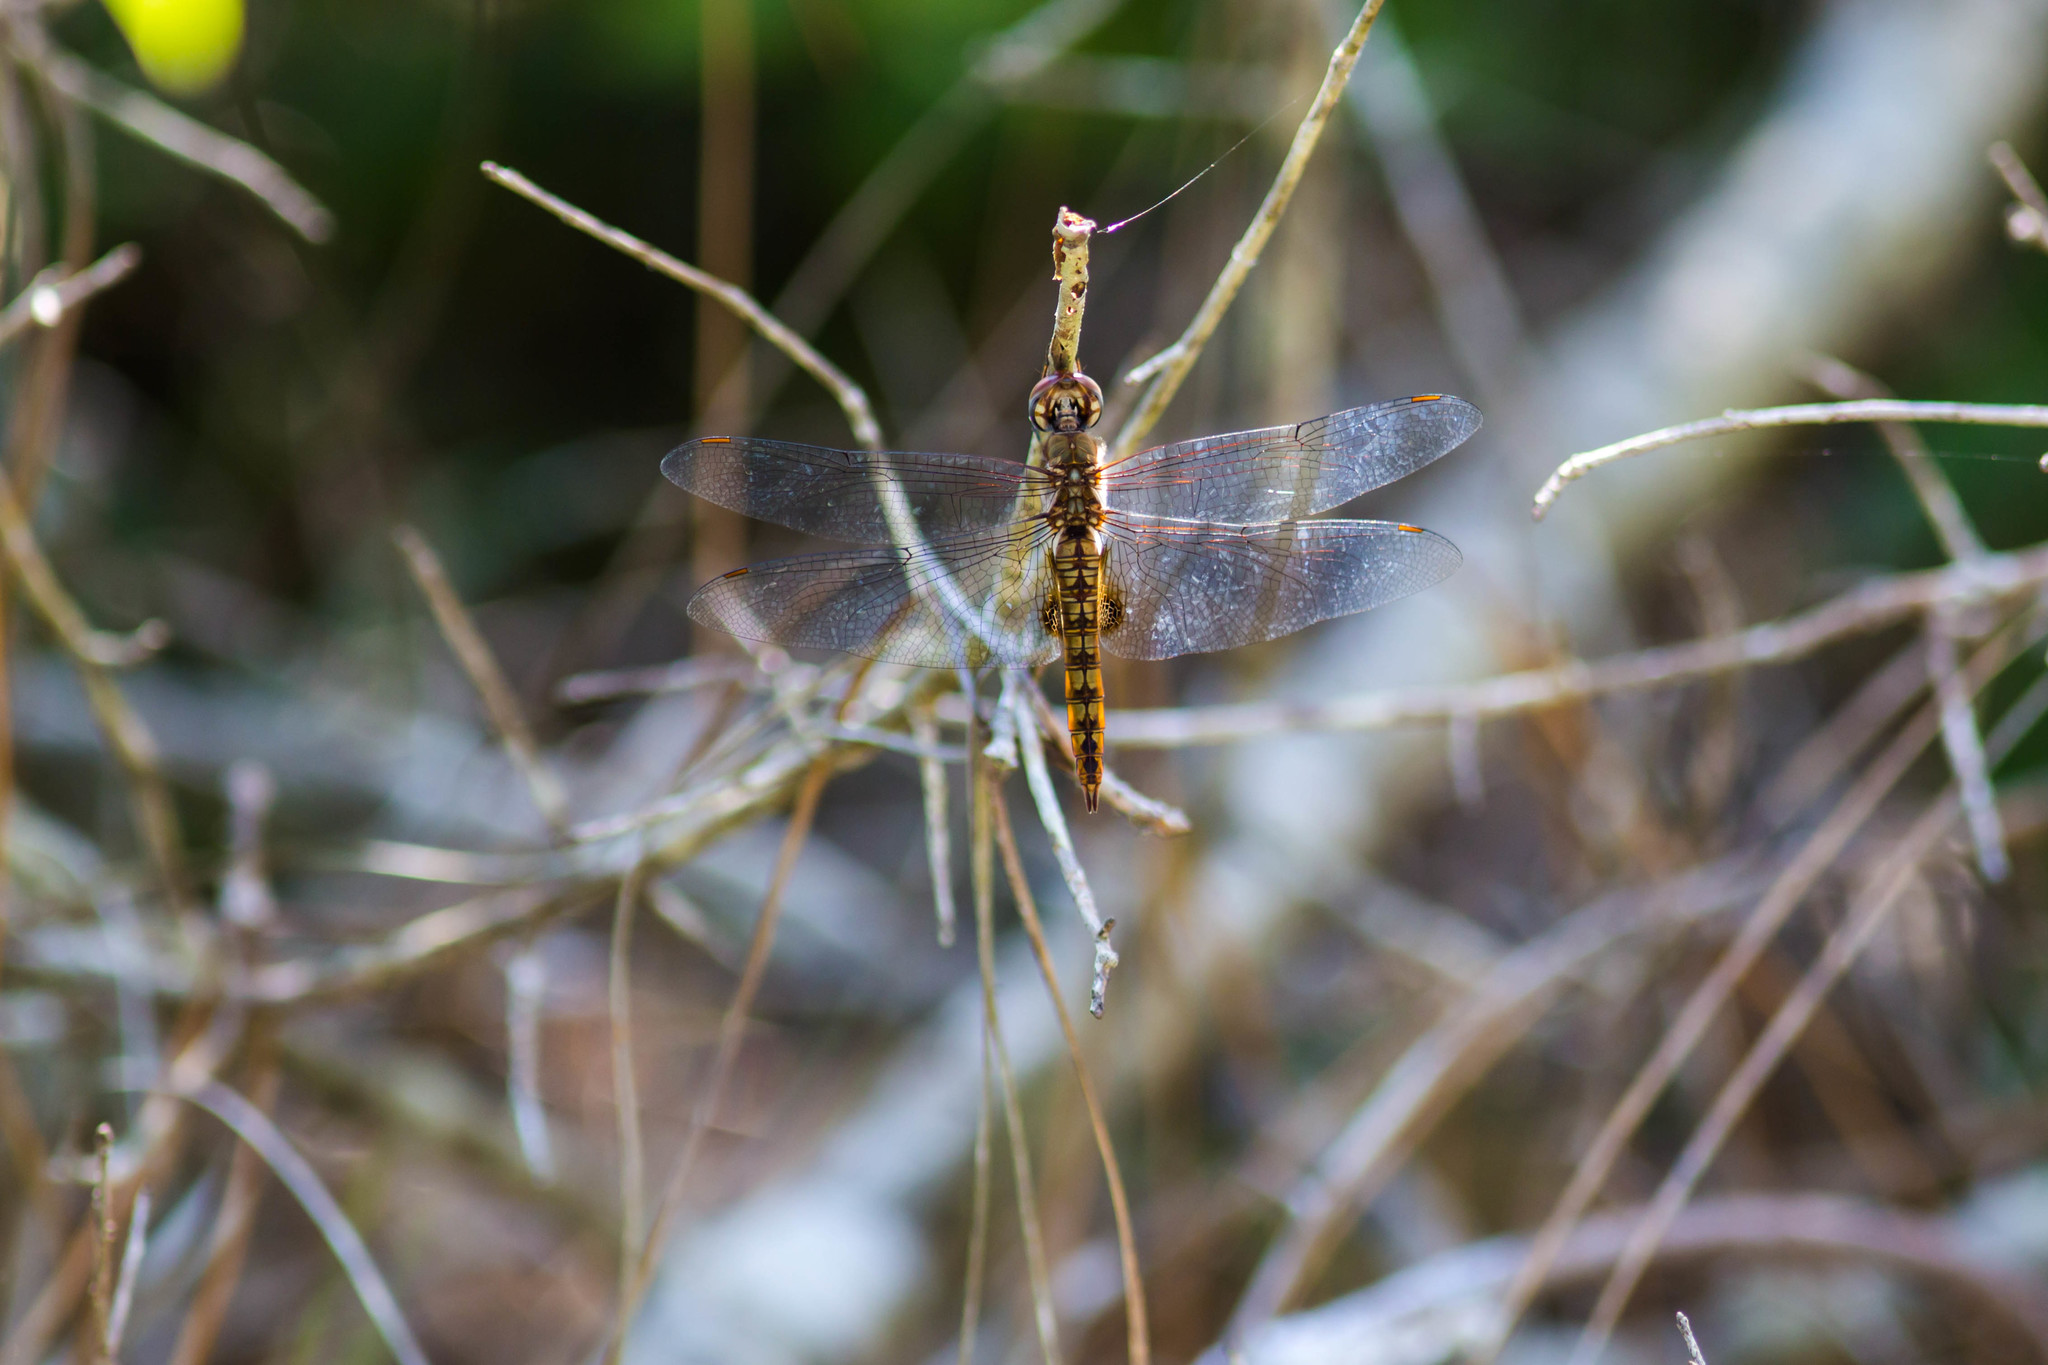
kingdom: Animalia
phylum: Arthropoda
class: Insecta
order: Odonata
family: Libellulidae
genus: Pantala
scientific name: Pantala hymenaea
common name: Spot-winged glider
